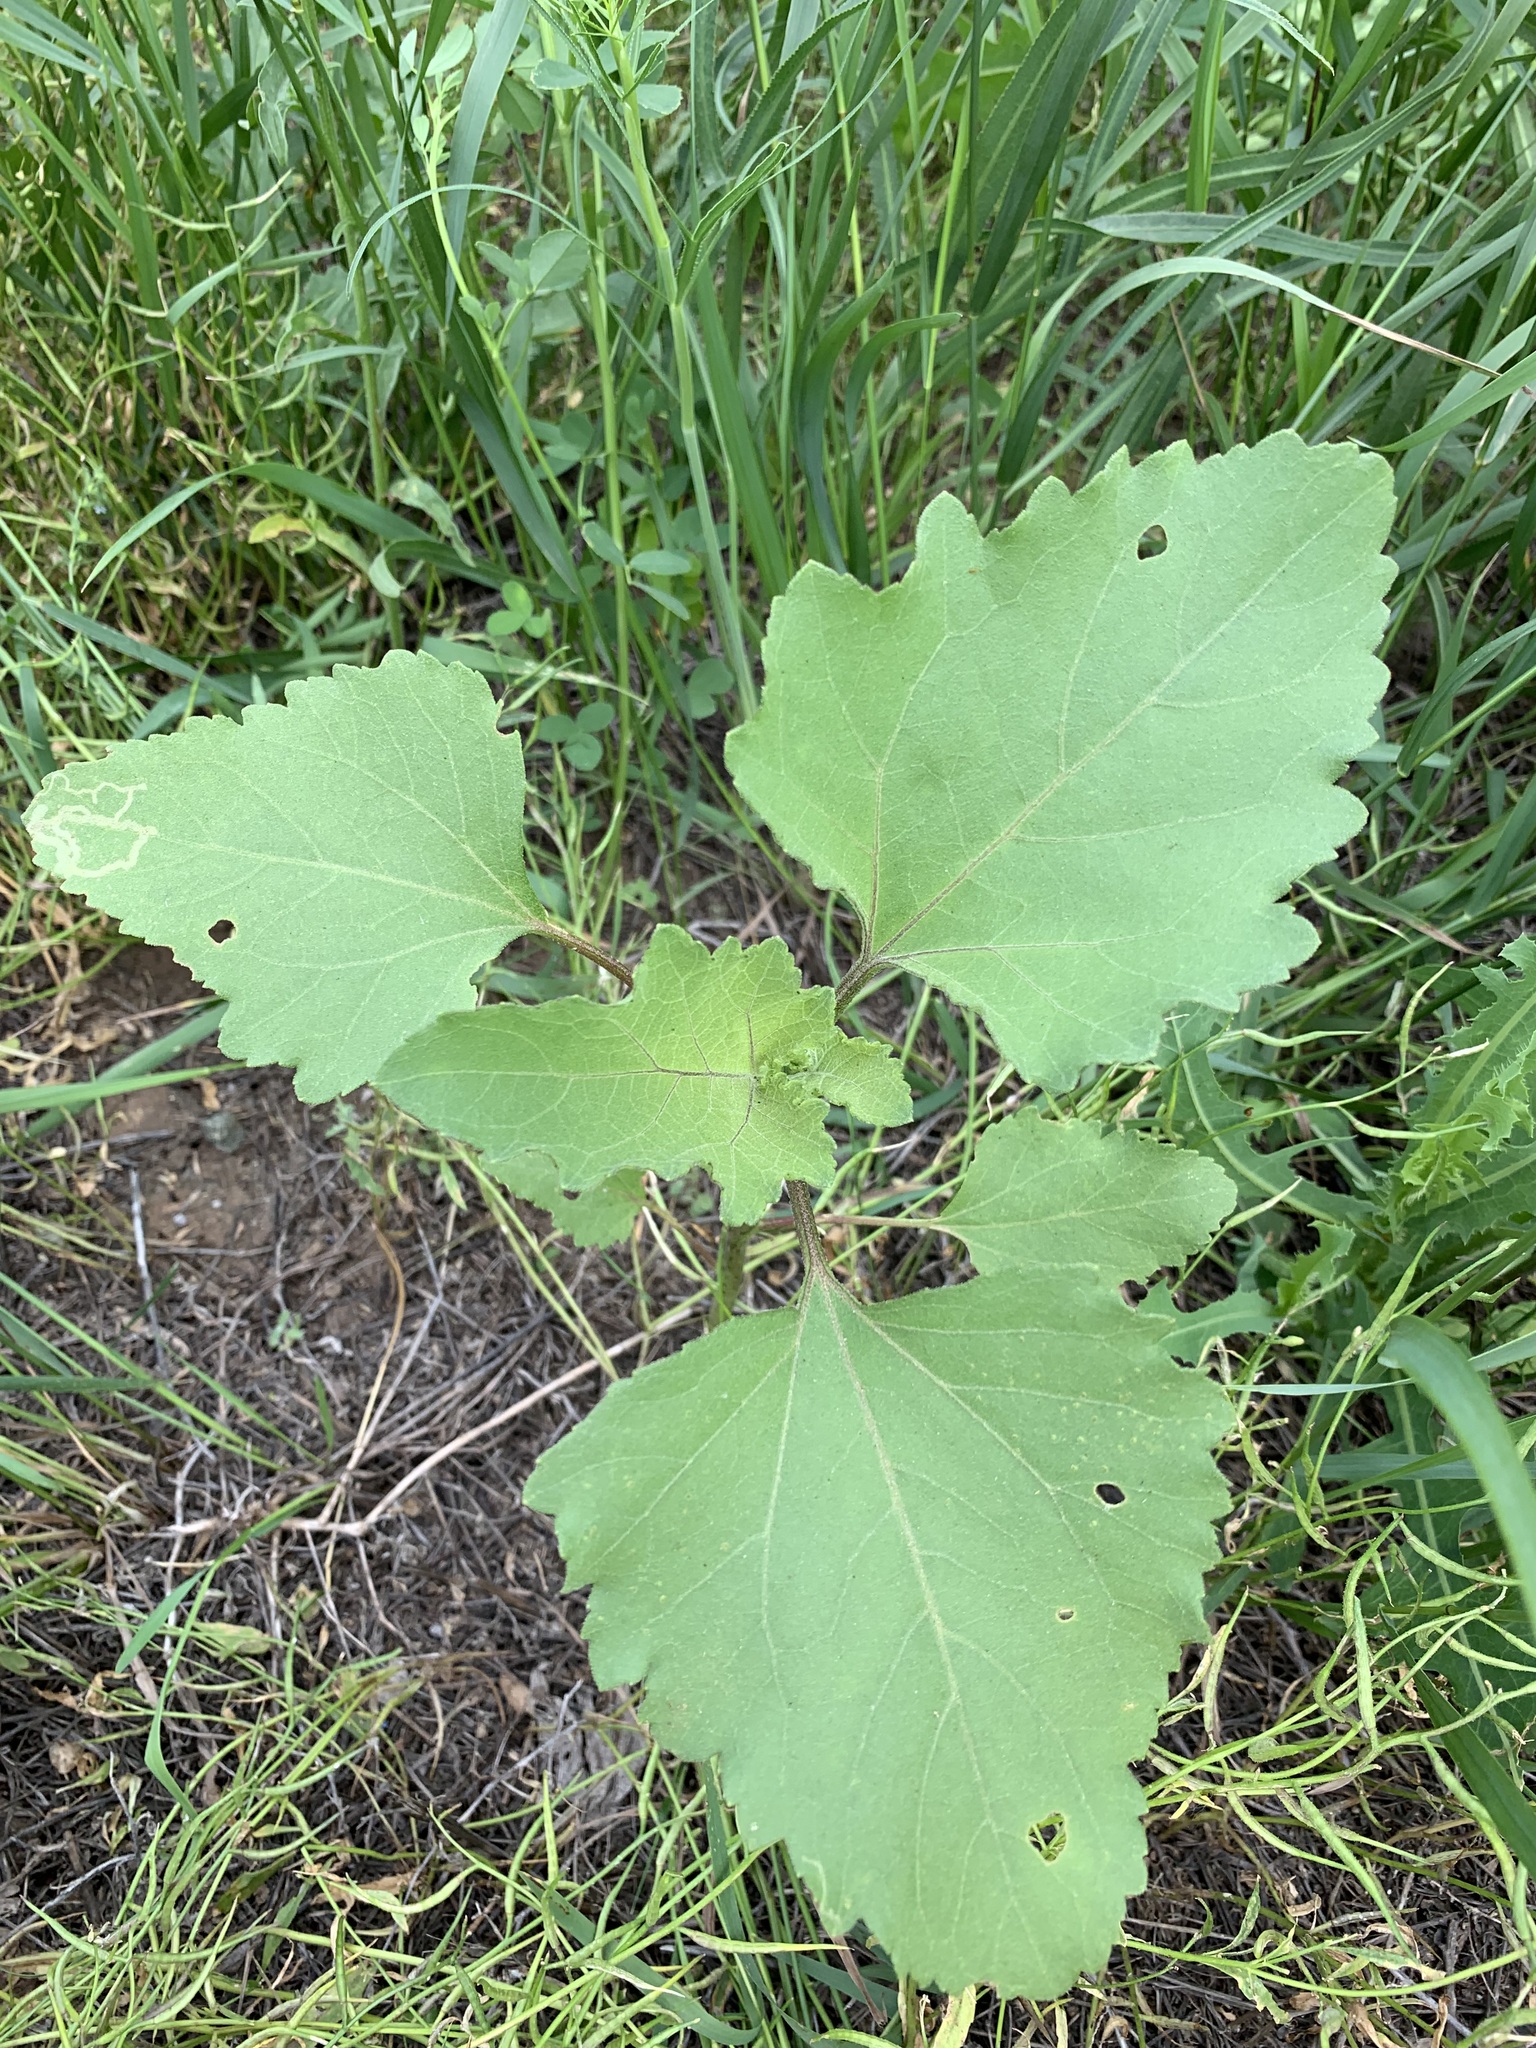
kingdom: Plantae
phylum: Tracheophyta
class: Magnoliopsida
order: Asterales
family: Asteraceae
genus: Xanthium
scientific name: Xanthium orientale
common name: Californian burr
